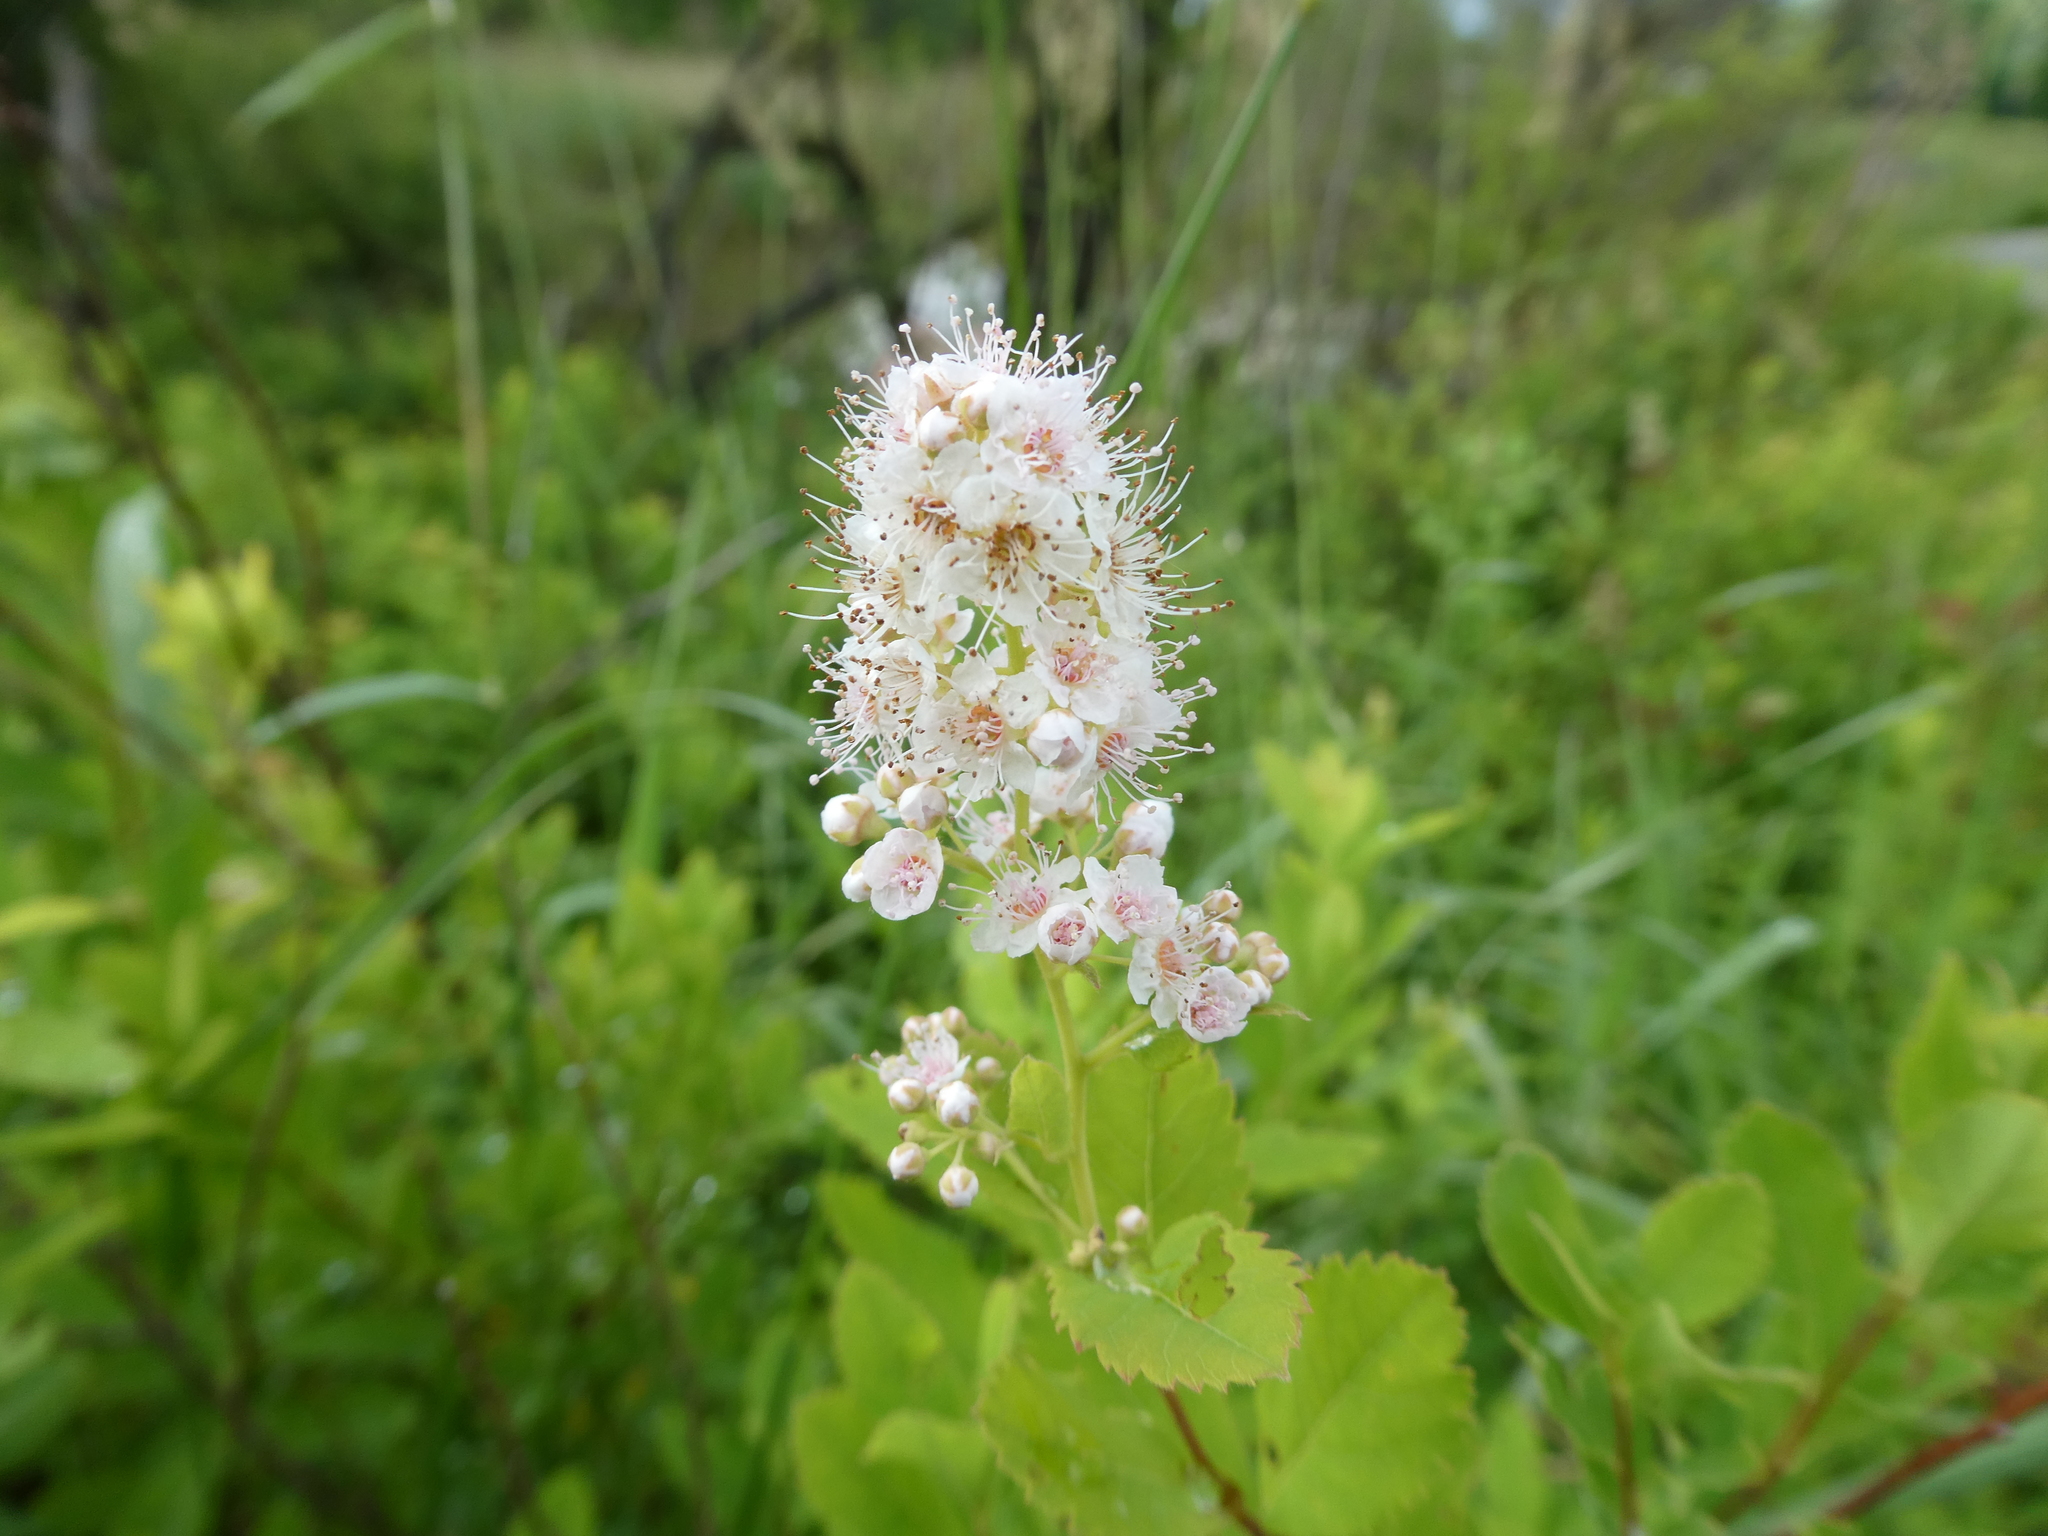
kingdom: Plantae
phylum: Tracheophyta
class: Magnoliopsida
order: Rosales
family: Rosaceae
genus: Spiraea
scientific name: Spiraea alba
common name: Pale bridewort
